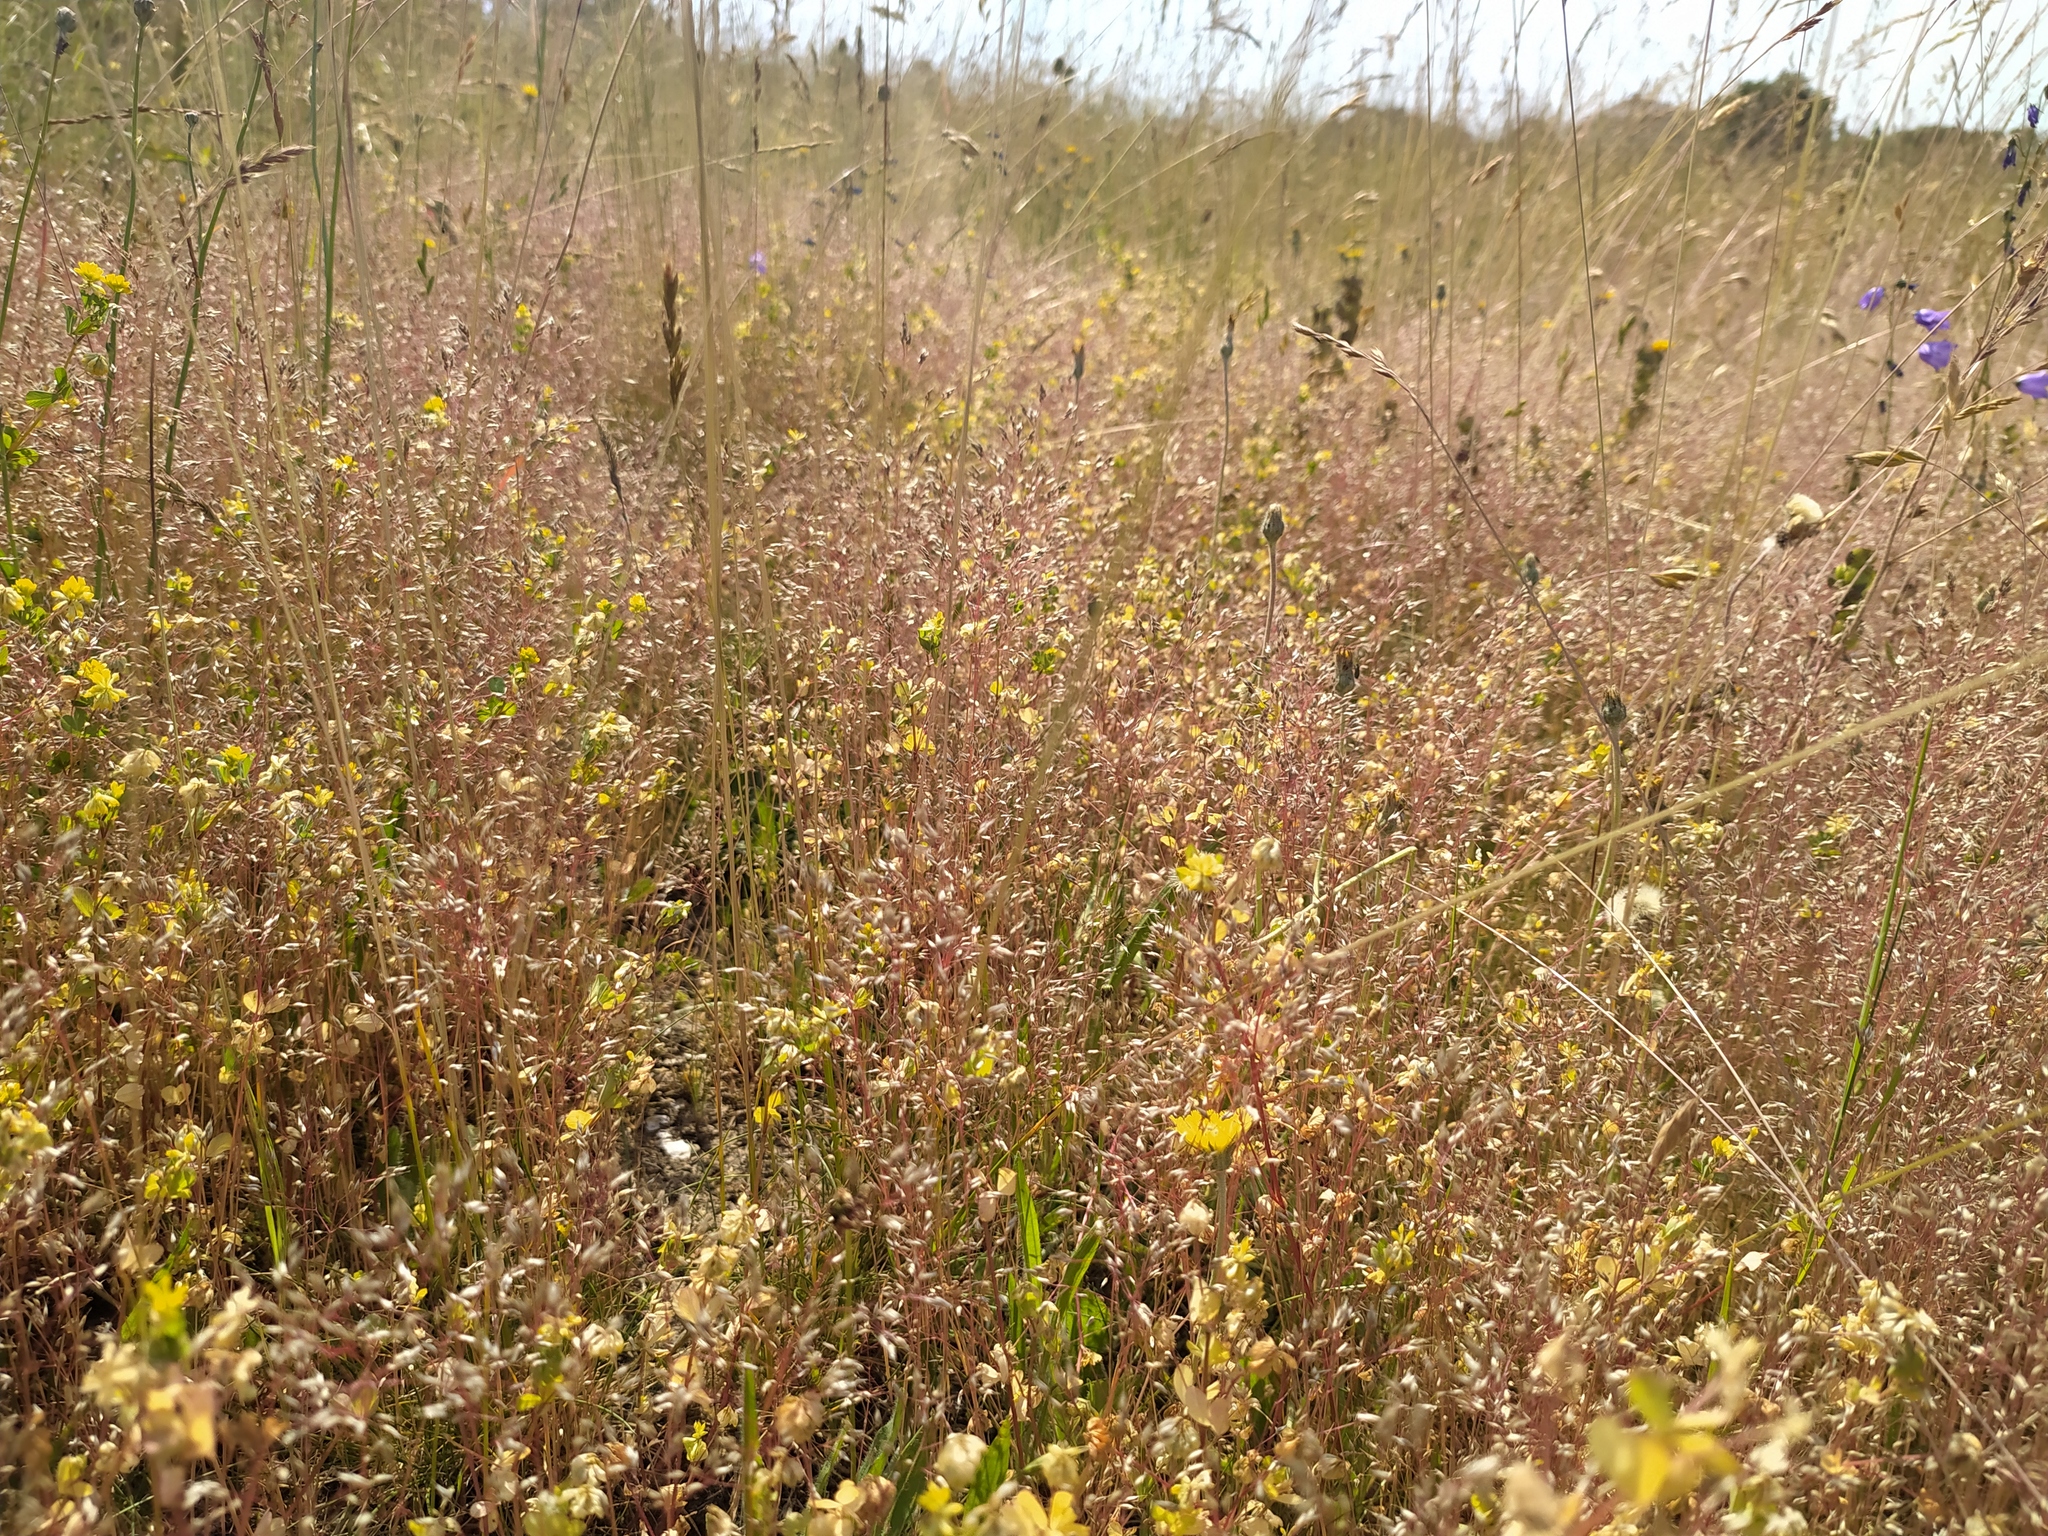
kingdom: Plantae
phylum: Tracheophyta
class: Liliopsida
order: Poales
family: Poaceae
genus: Aira
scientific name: Aira caryophyllea
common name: Silver hairgrass
